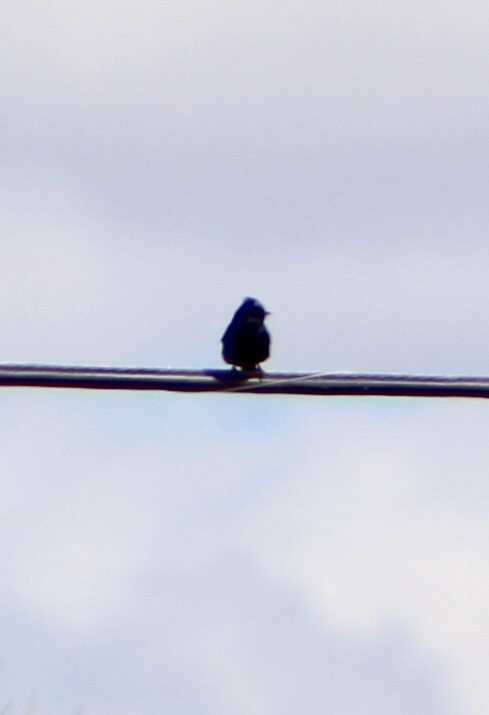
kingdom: Animalia
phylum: Chordata
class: Aves
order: Passeriformes
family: Ptilogonatidae
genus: Phainopepla
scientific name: Phainopepla nitens
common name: Phainopepla
